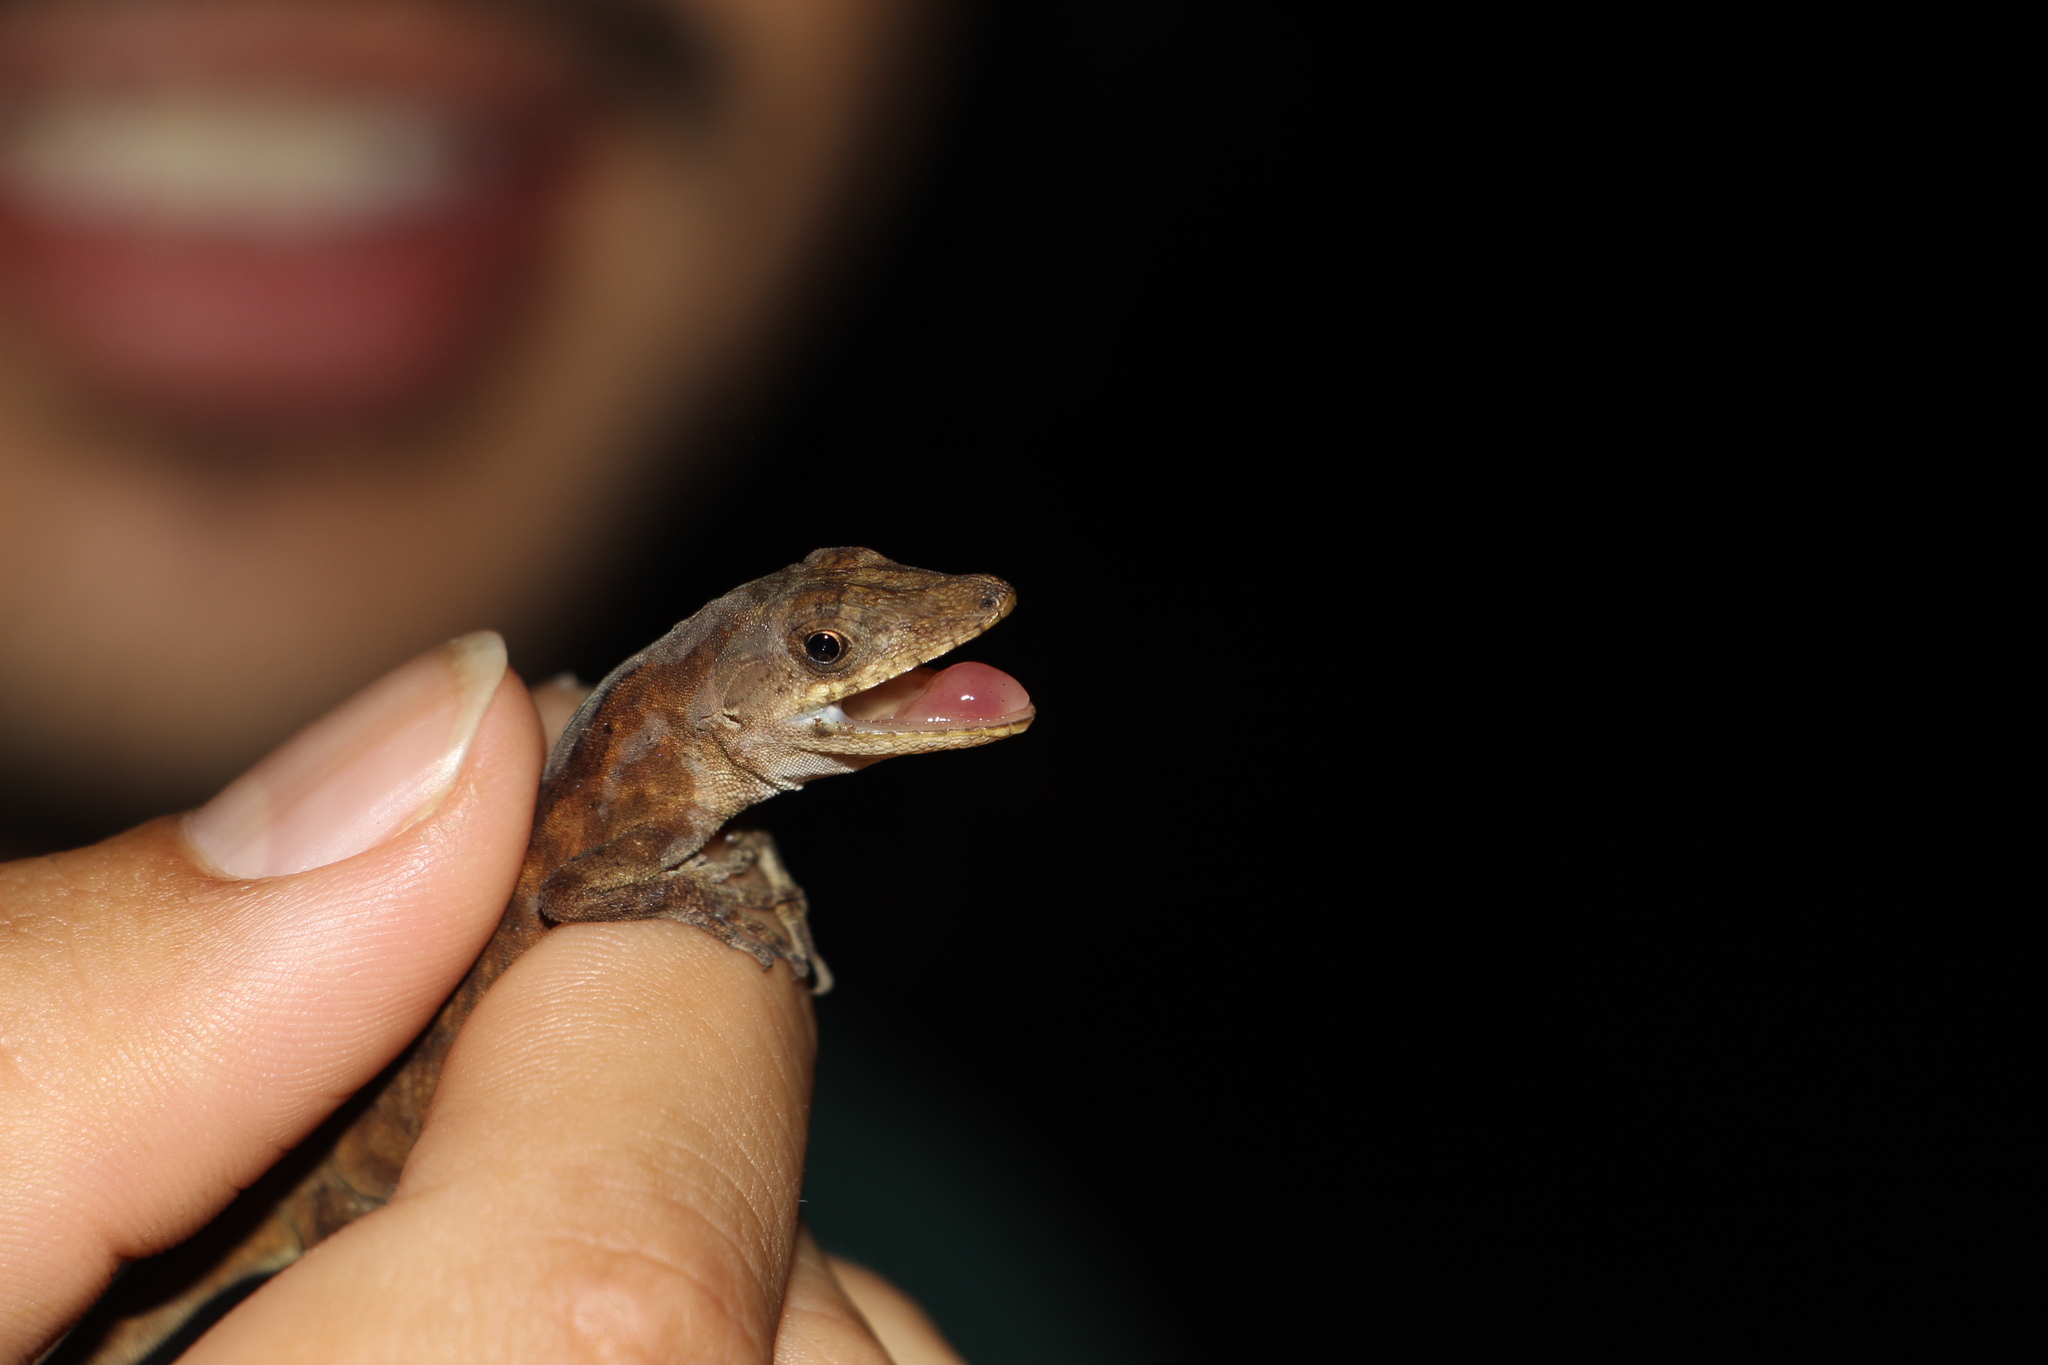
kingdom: Animalia
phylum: Chordata
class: Squamata
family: Dactyloidae
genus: Anolis
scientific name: Anolis tolimensis
